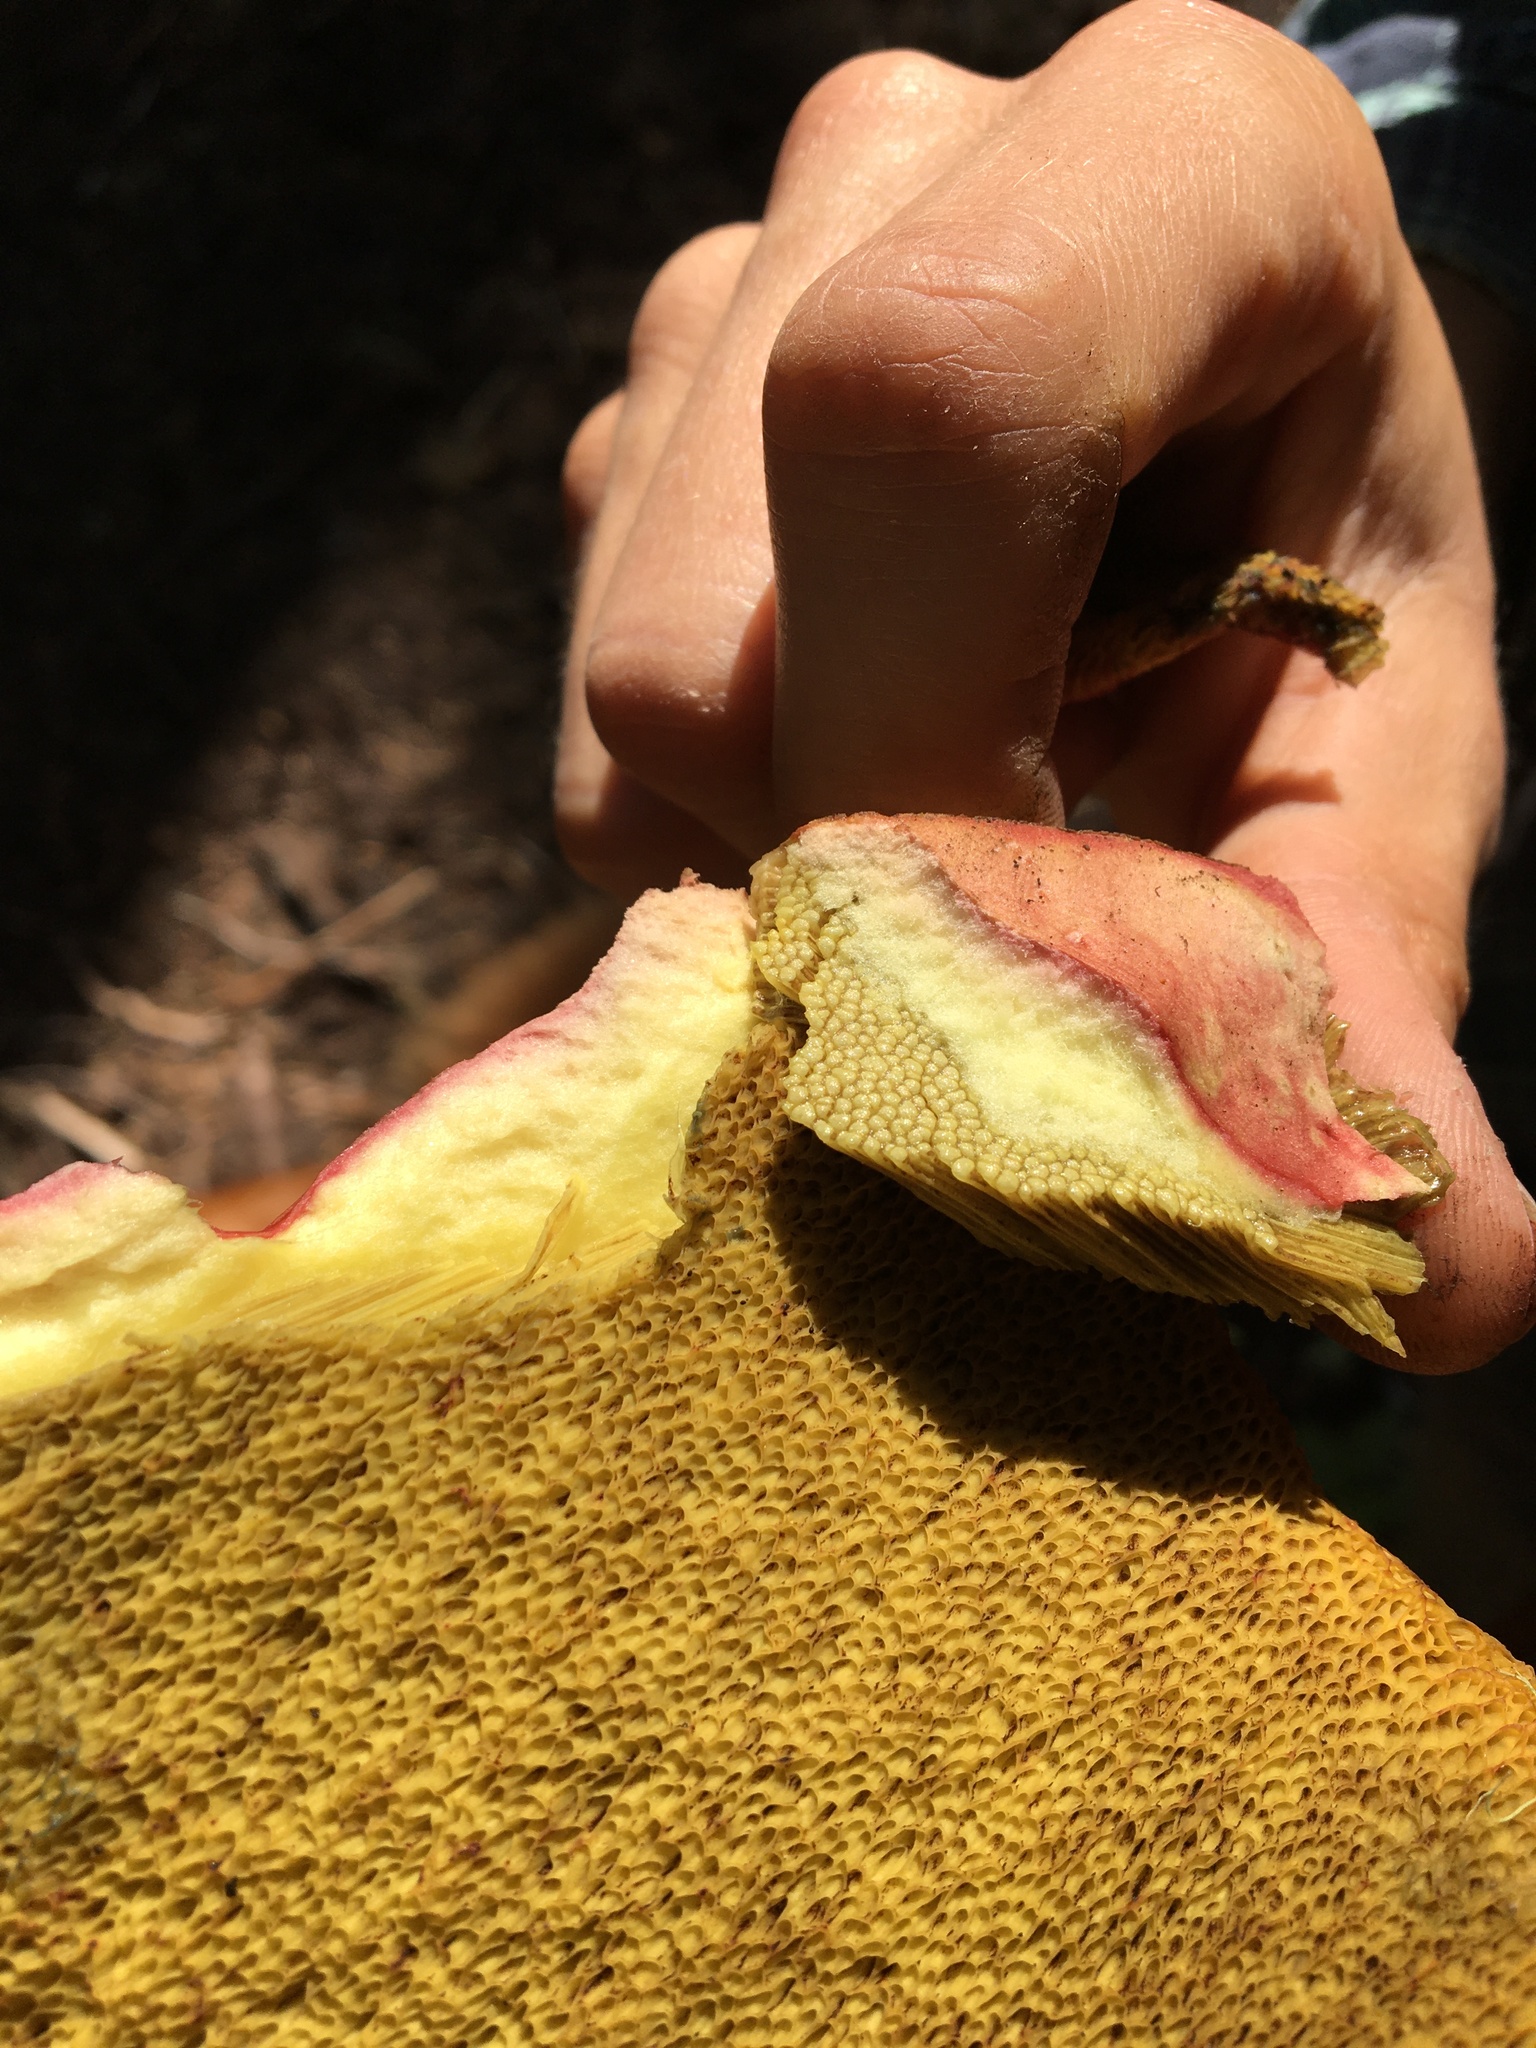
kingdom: Fungi
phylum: Basidiomycota
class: Agaricomycetes
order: Boletales
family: Boletaceae
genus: Boletus
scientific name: Boletus smithii
